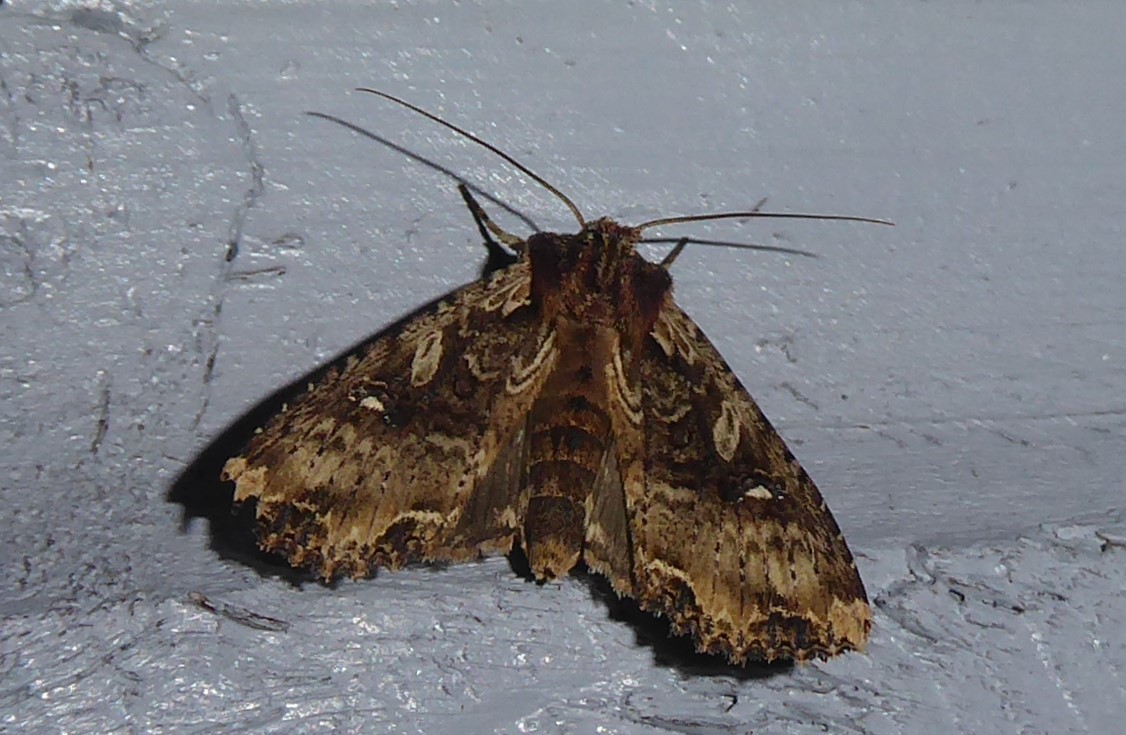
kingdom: Animalia
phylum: Arthropoda
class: Insecta
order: Lepidoptera
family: Noctuidae
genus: Meterana
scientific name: Meterana stipata
